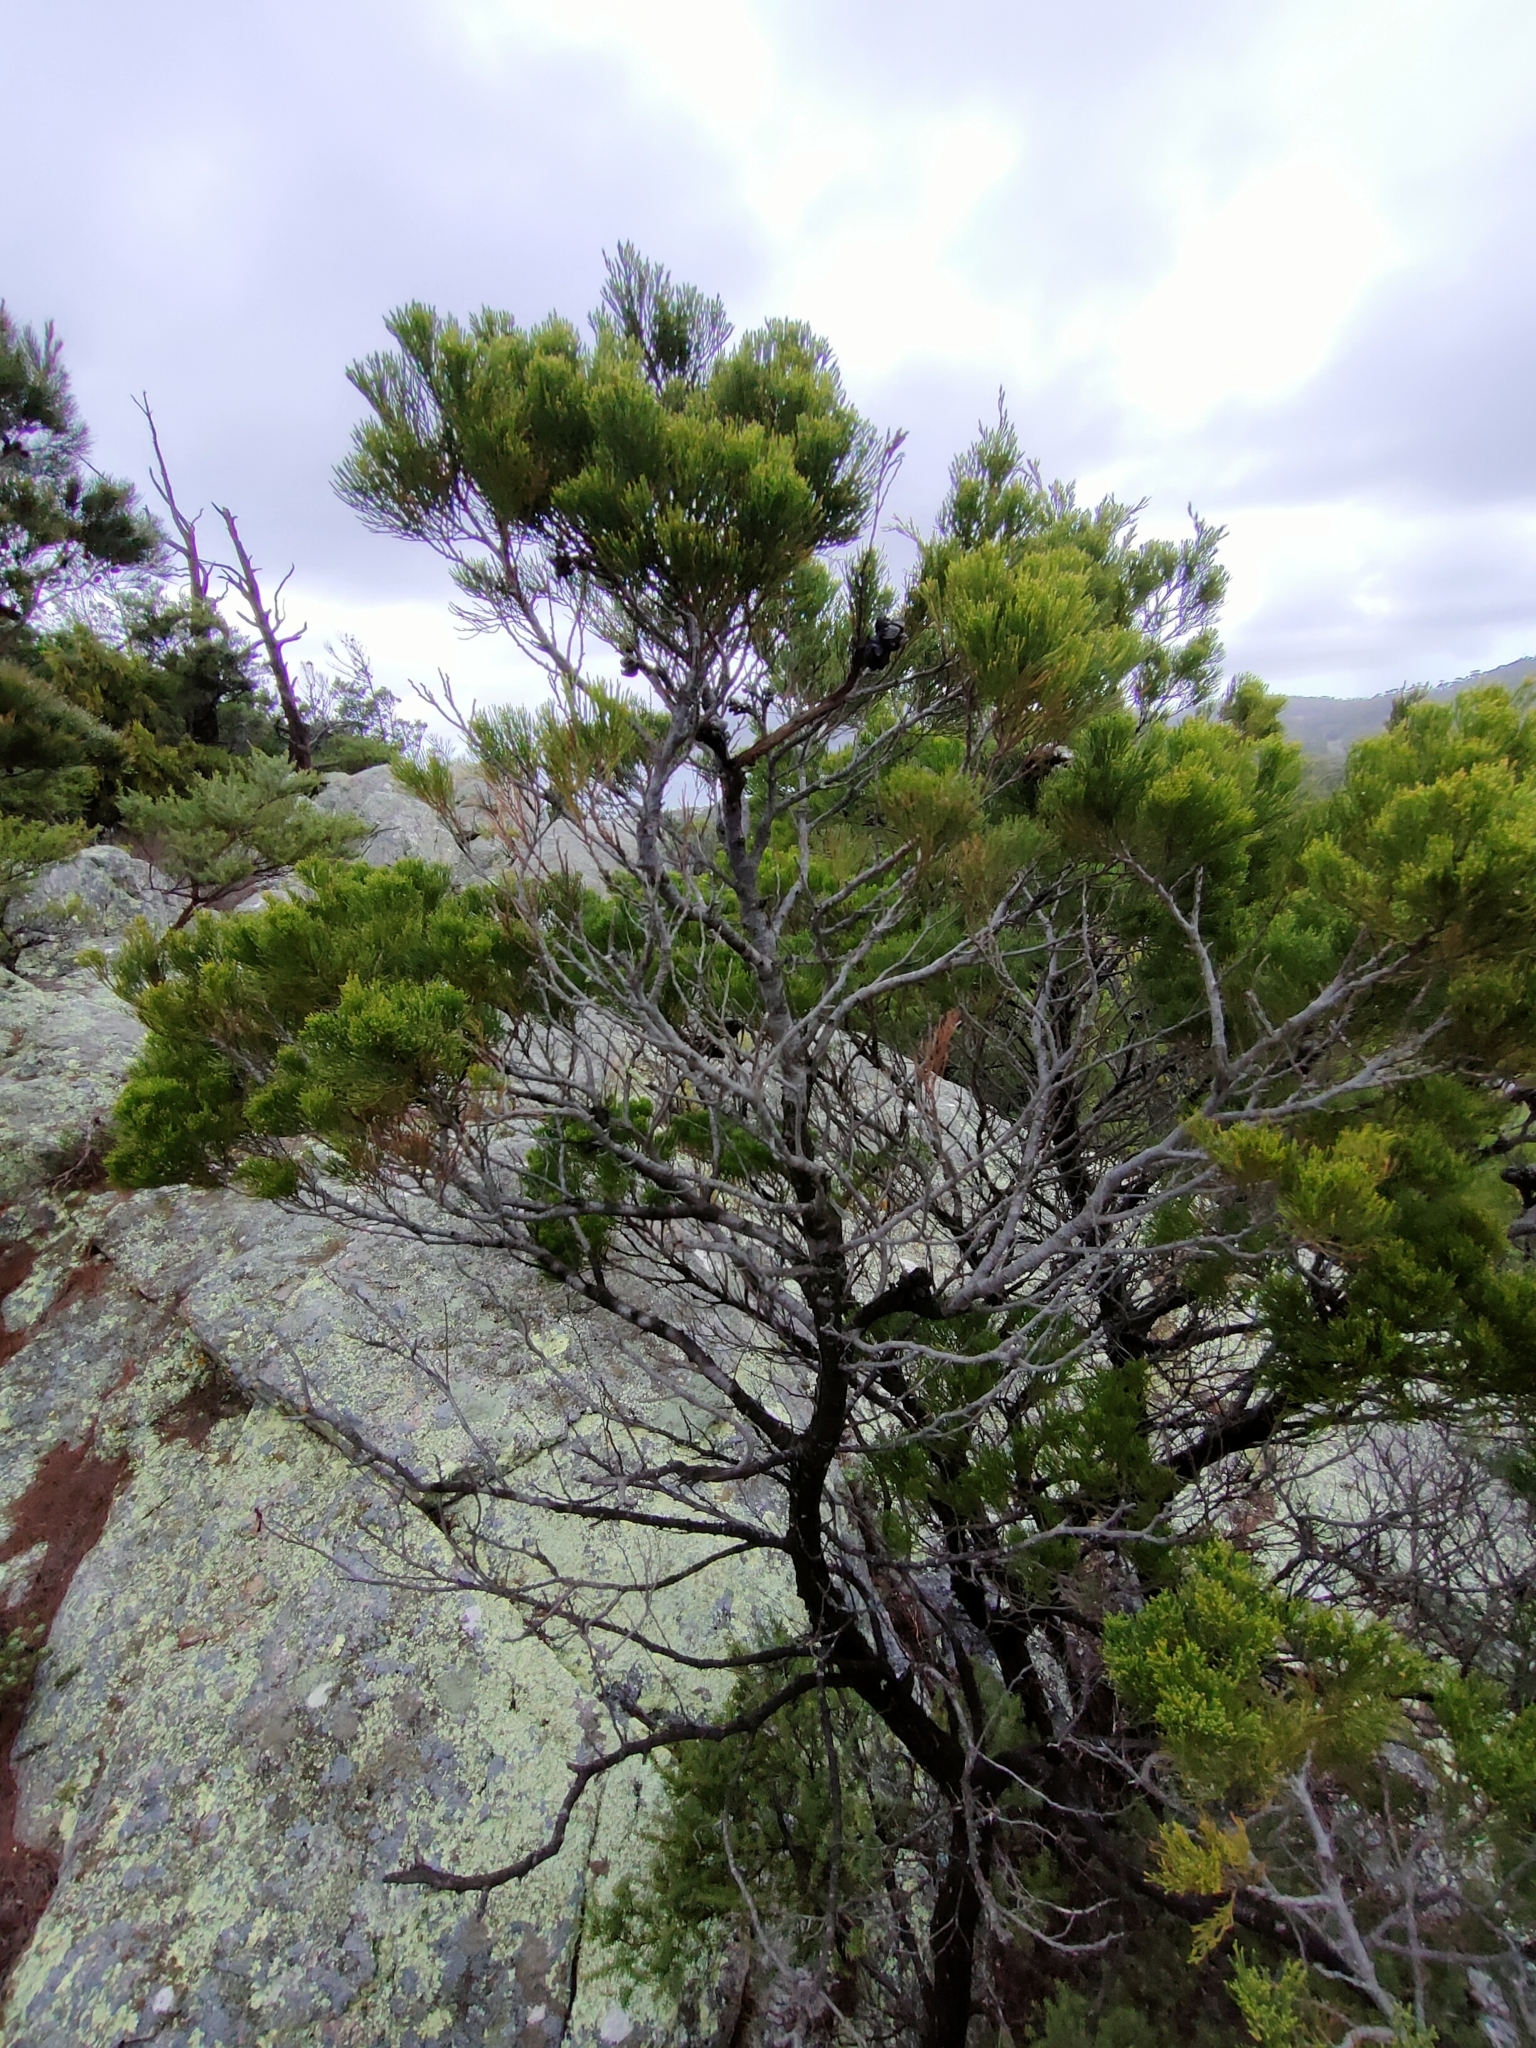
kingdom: Plantae
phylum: Tracheophyta
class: Pinopsida
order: Pinales
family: Cupressaceae
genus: Callitris
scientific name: Callitris rhomboidea
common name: Illawara mountain pine
